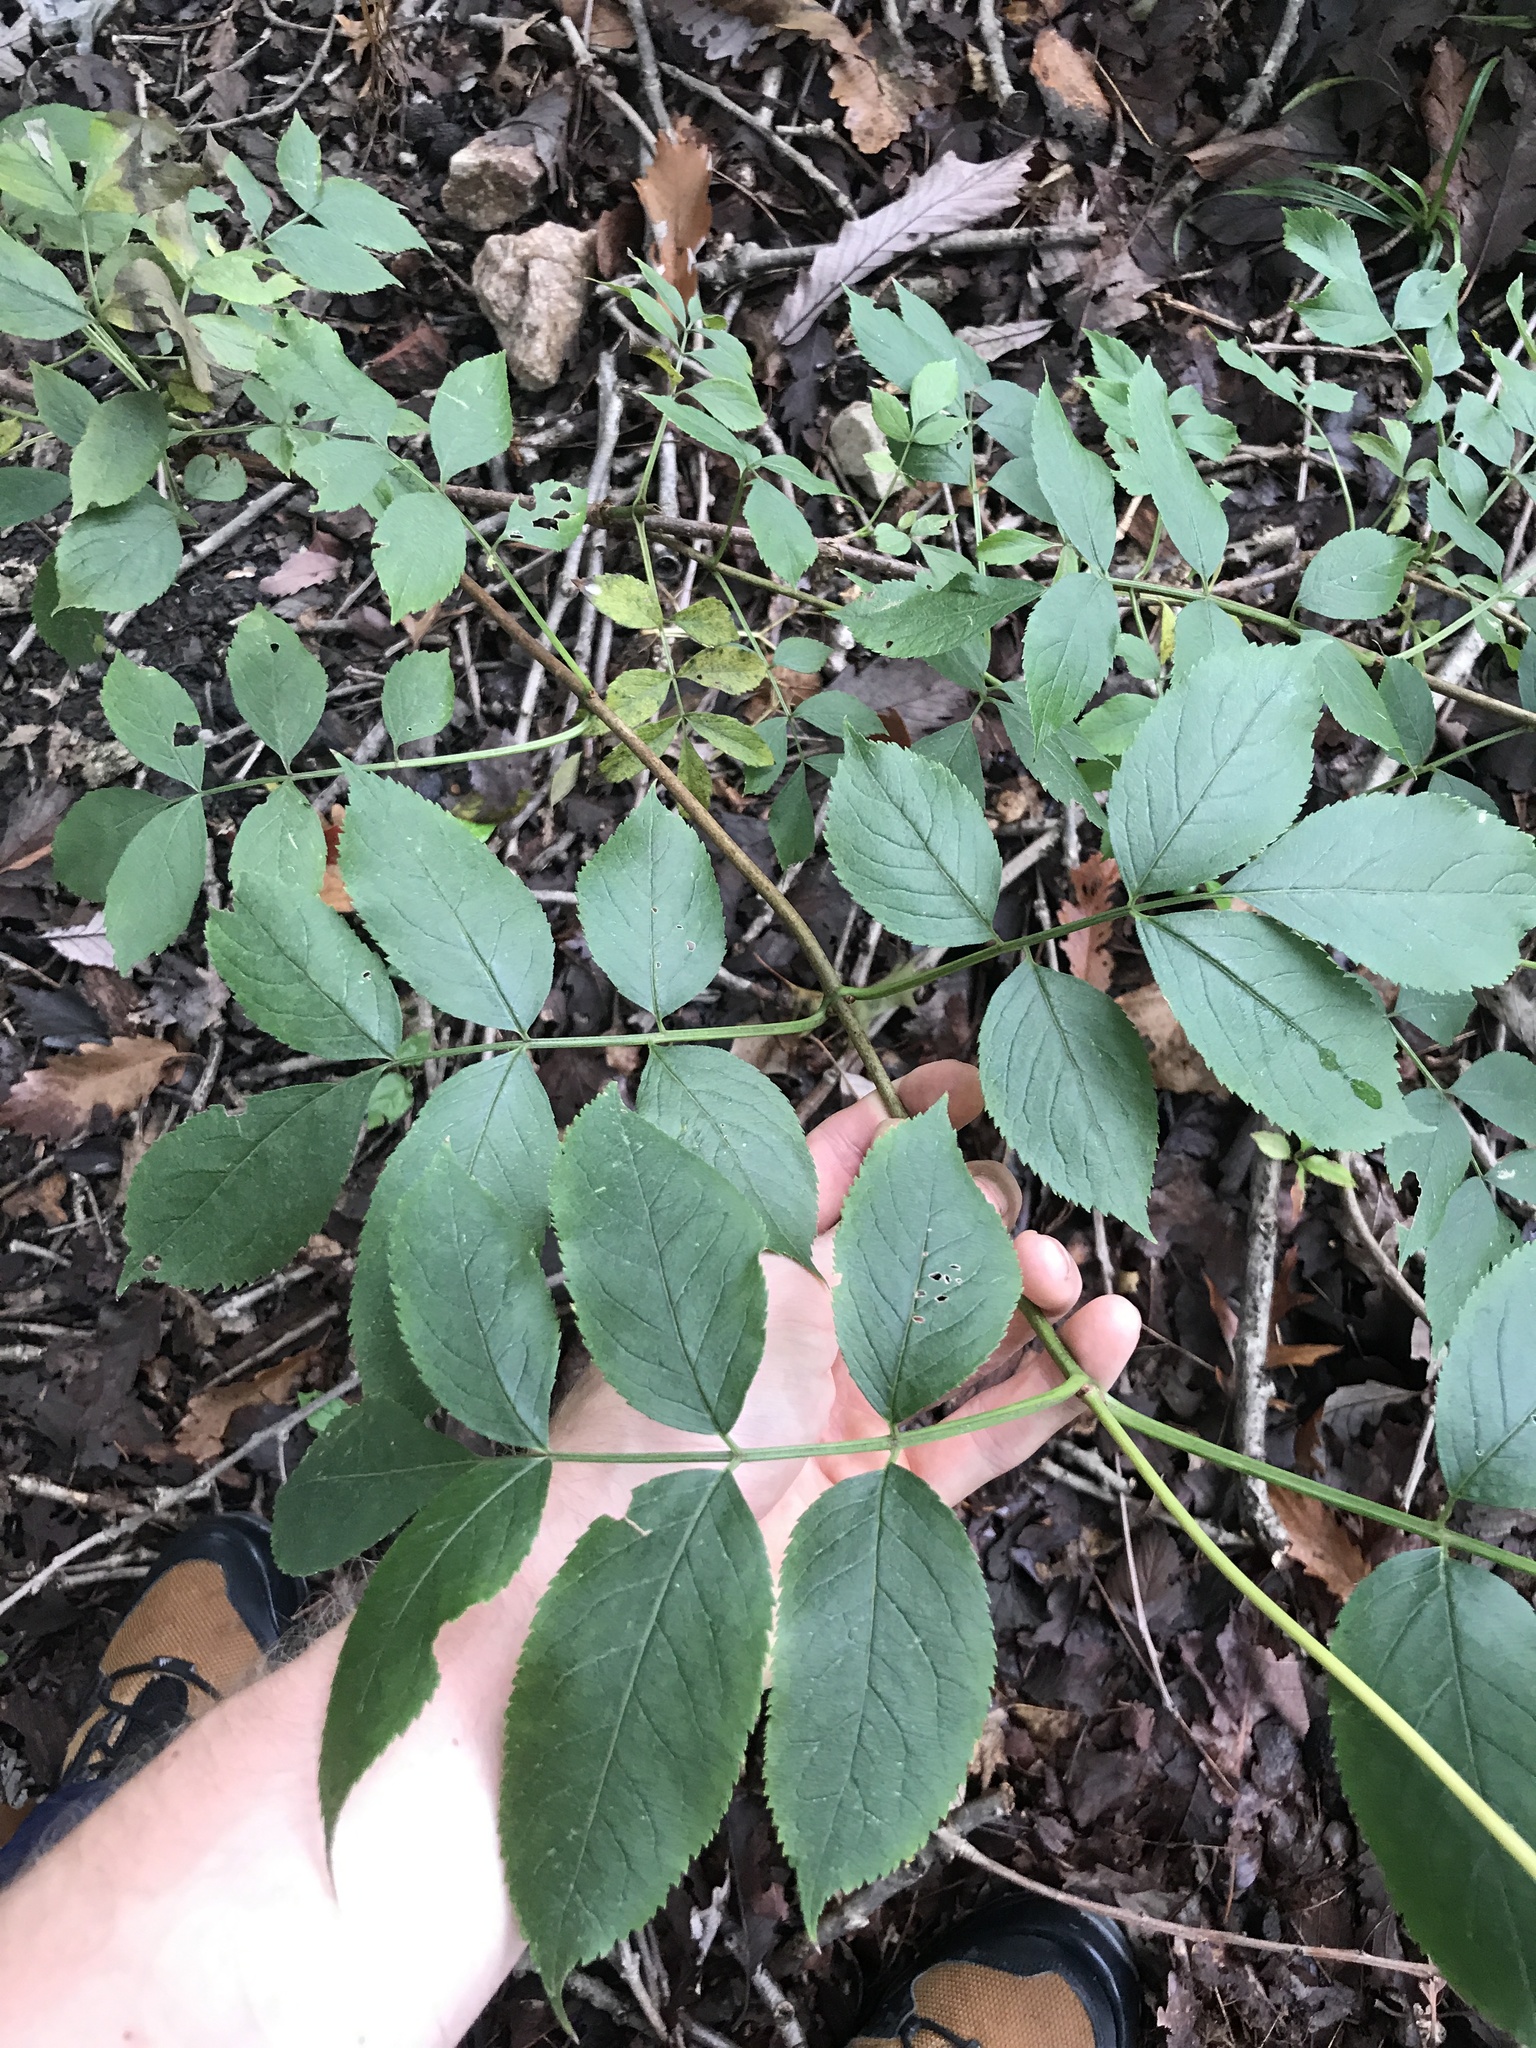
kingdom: Plantae
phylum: Tracheophyta
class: Magnoliopsida
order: Dipsacales
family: Viburnaceae
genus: Sambucus
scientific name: Sambucus canadensis
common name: American elder
